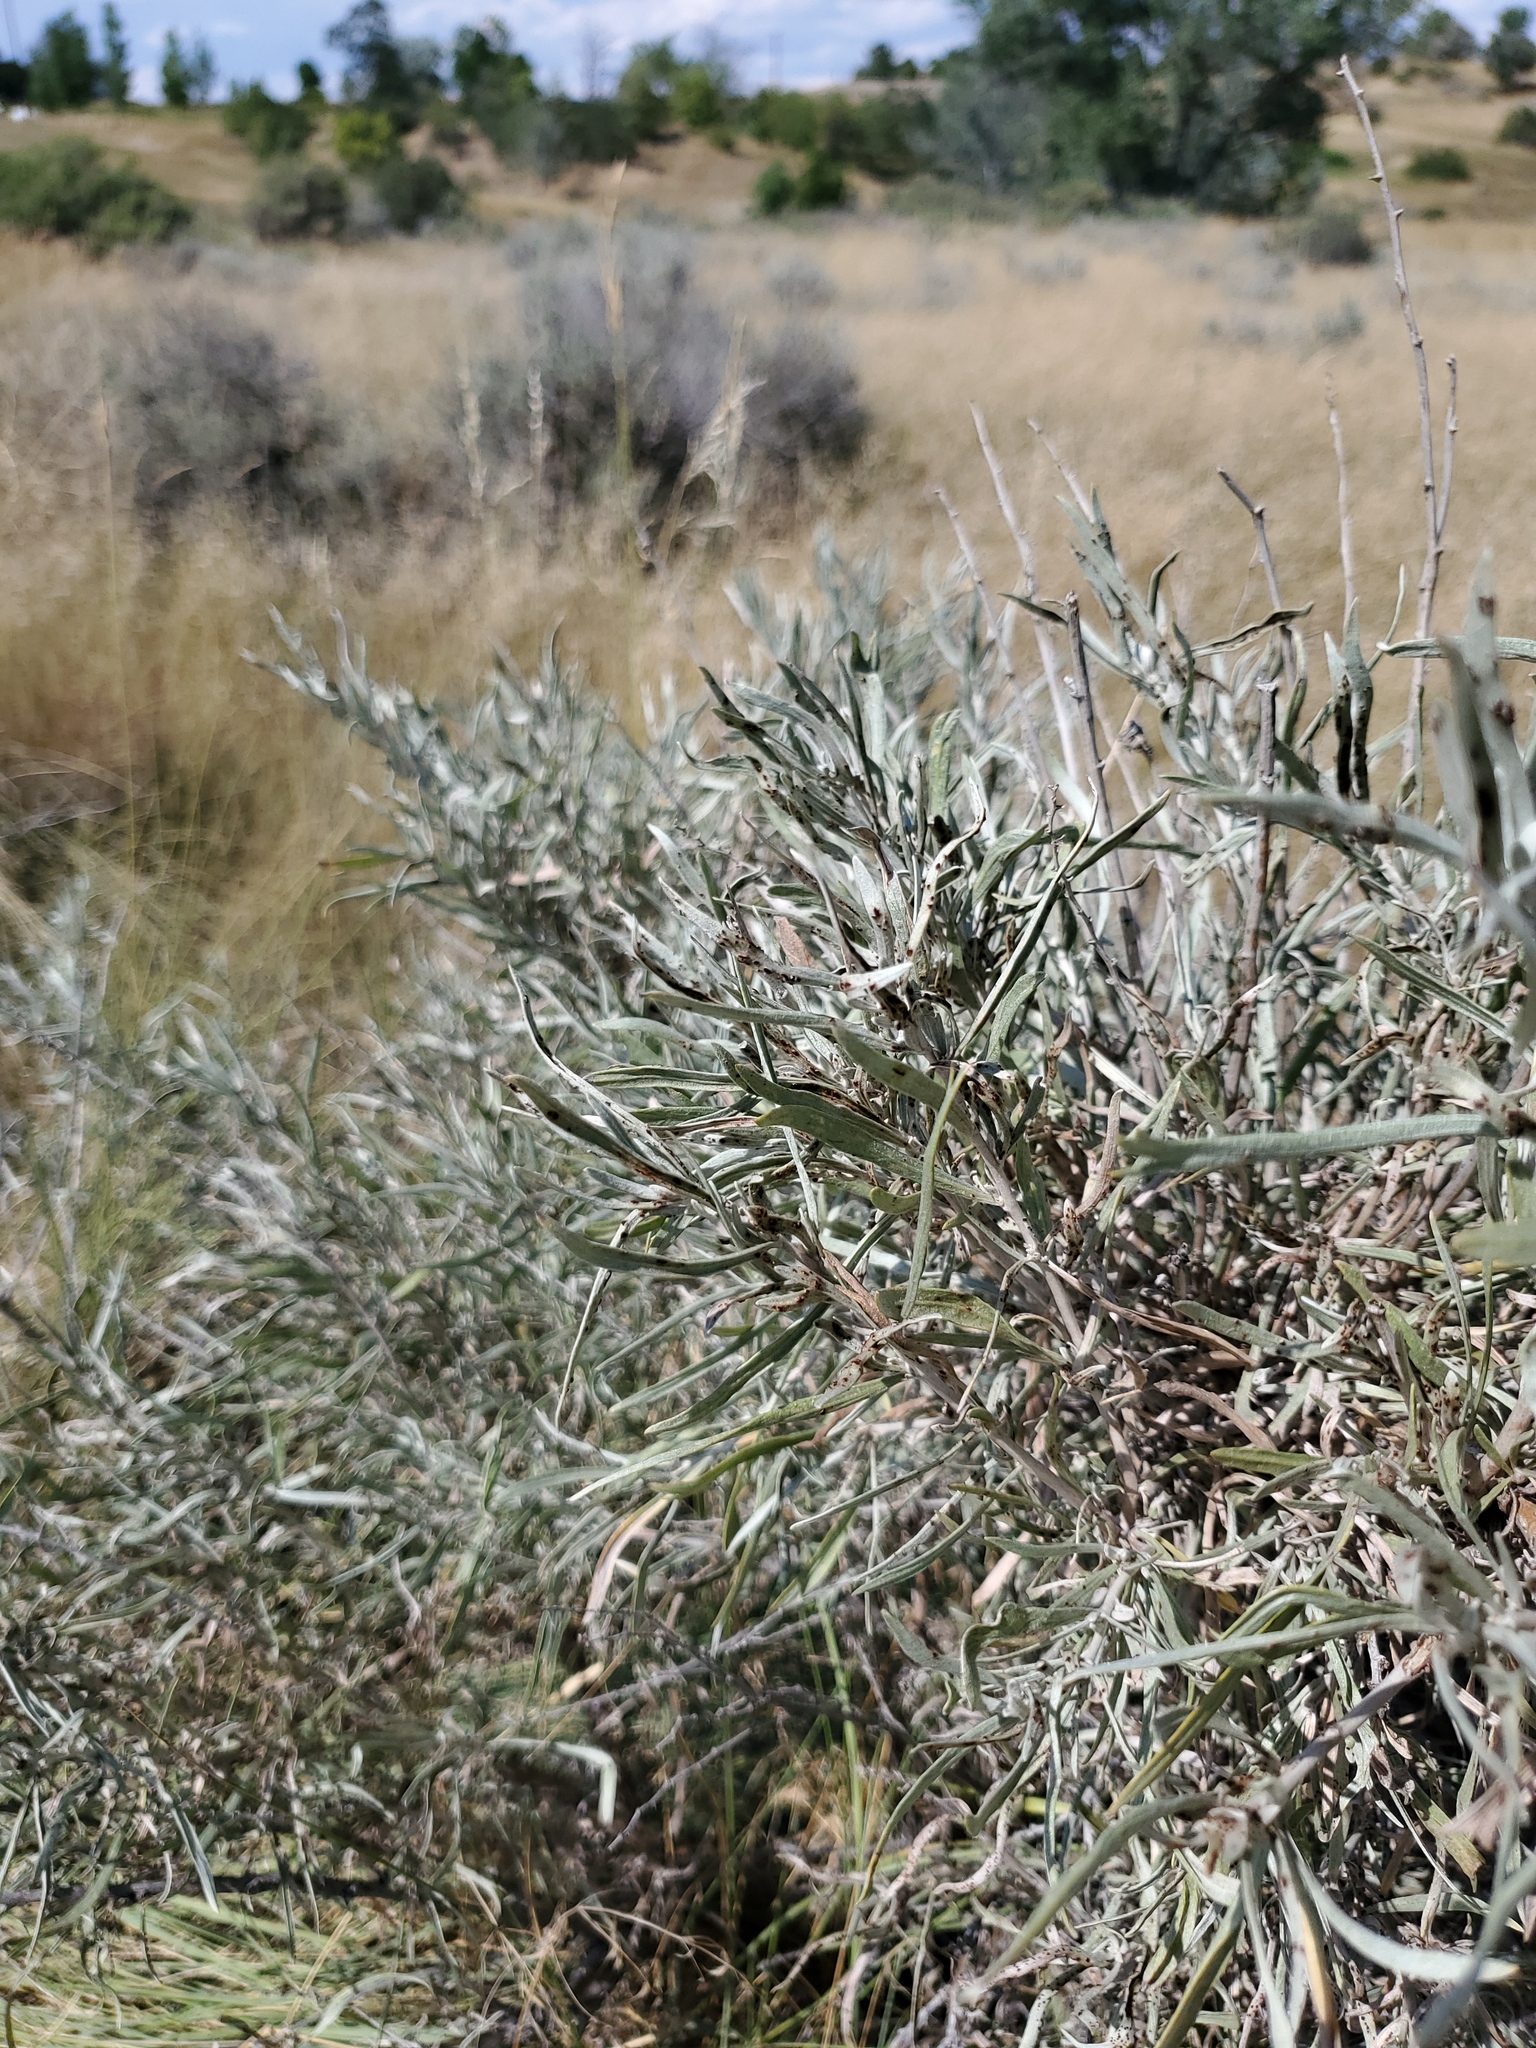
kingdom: Plantae
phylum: Tracheophyta
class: Magnoliopsida
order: Asterales
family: Asteraceae
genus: Artemisia
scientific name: Artemisia cana
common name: Silver sagebrush
